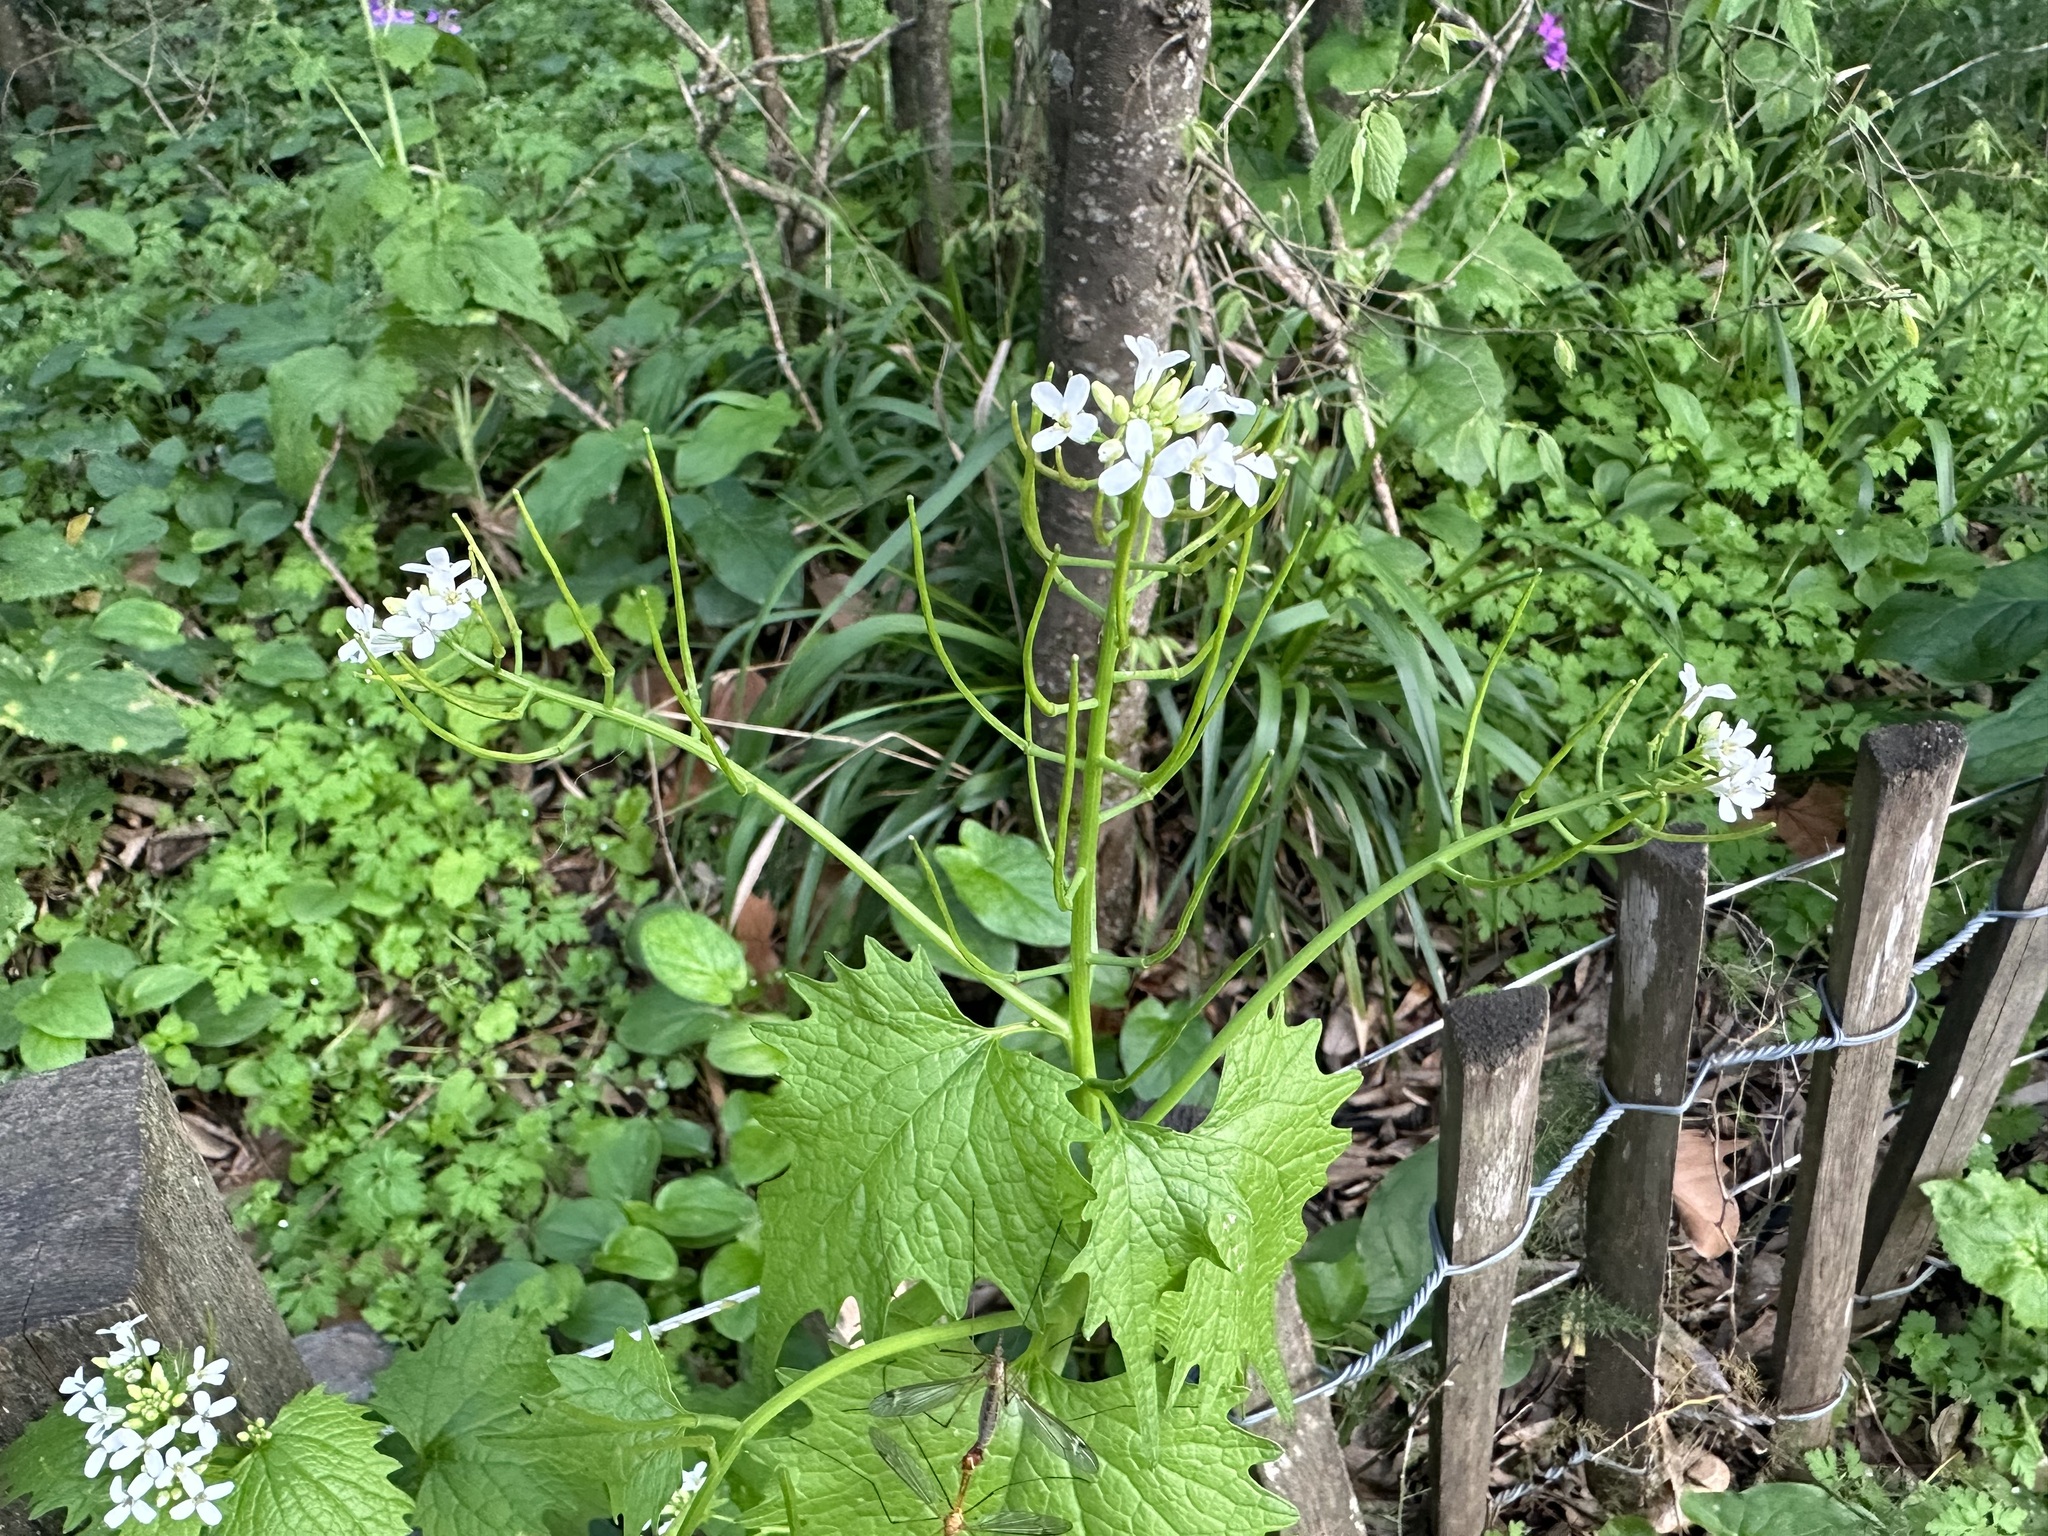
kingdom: Plantae
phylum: Tracheophyta
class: Magnoliopsida
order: Brassicales
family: Brassicaceae
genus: Alliaria
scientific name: Alliaria petiolata
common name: Garlic mustard
